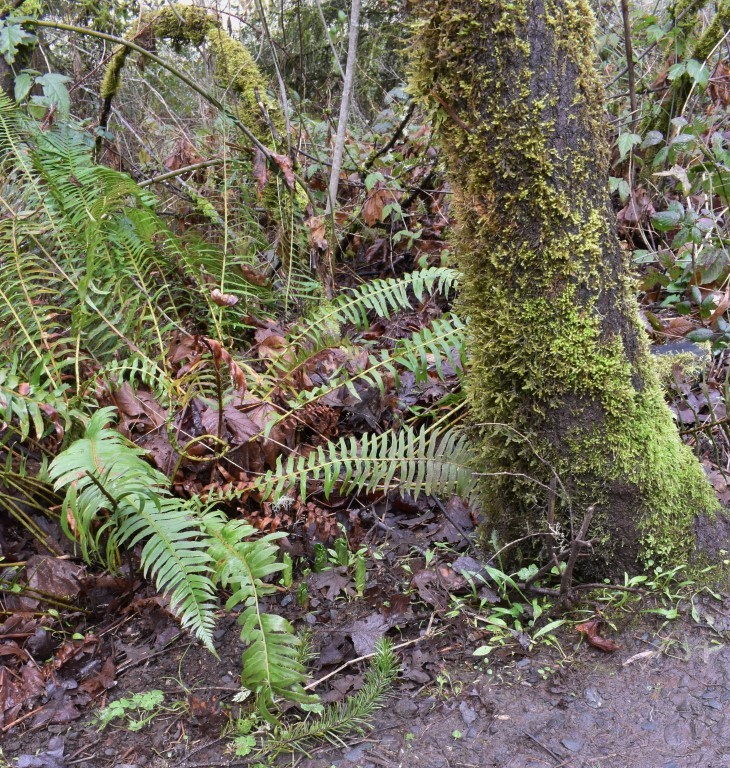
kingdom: Plantae
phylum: Tracheophyta
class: Liliopsida
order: Liliales
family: Melanthiaceae
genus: Trillium
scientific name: Trillium albidum
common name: Freeman's trillium
